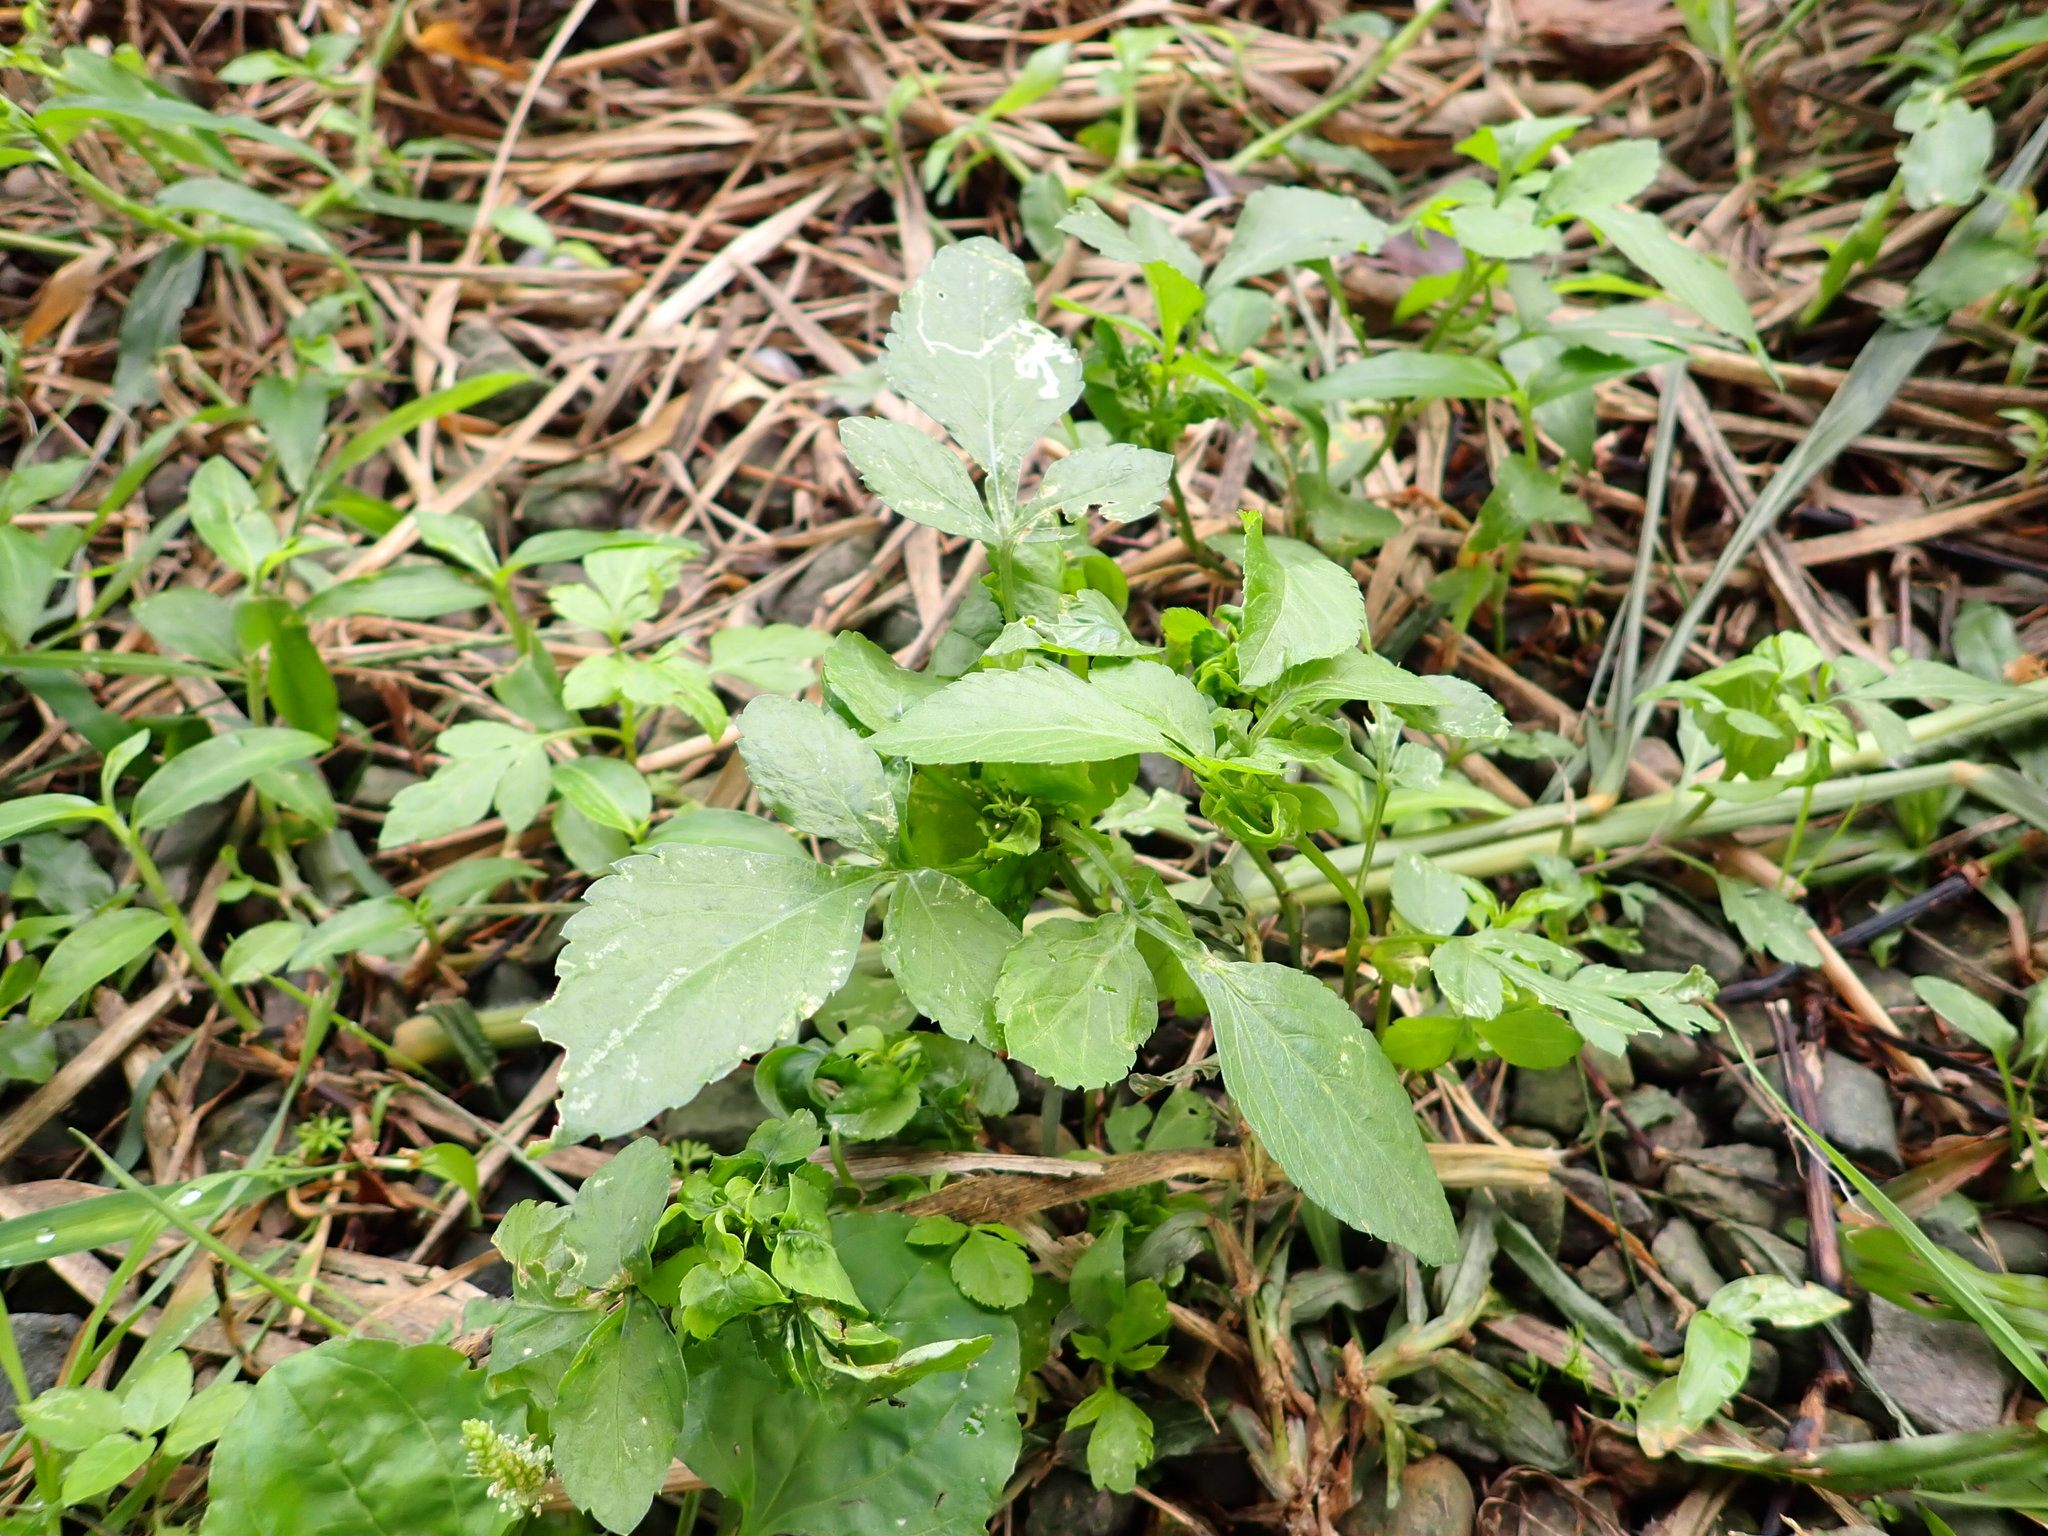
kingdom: Plantae
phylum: Tracheophyta
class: Magnoliopsida
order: Asterales
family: Asteraceae
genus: Bidens
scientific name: Bidens alba
